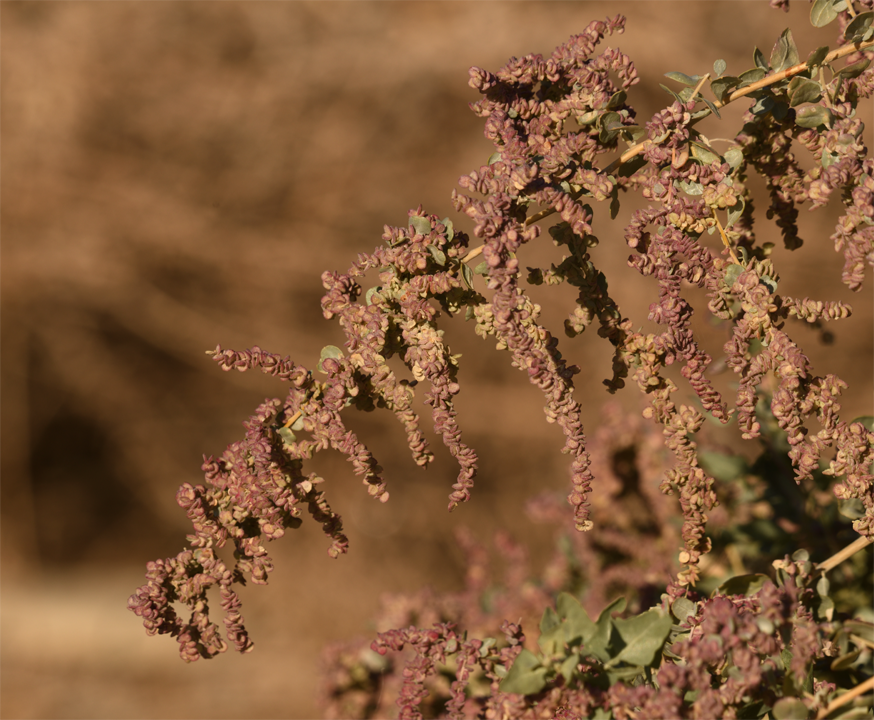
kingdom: Plantae
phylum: Tracheophyta
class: Magnoliopsida
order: Caryophyllales
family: Amaranthaceae
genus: Atriplex
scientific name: Atriplex lentiformis
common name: Big saltbush
